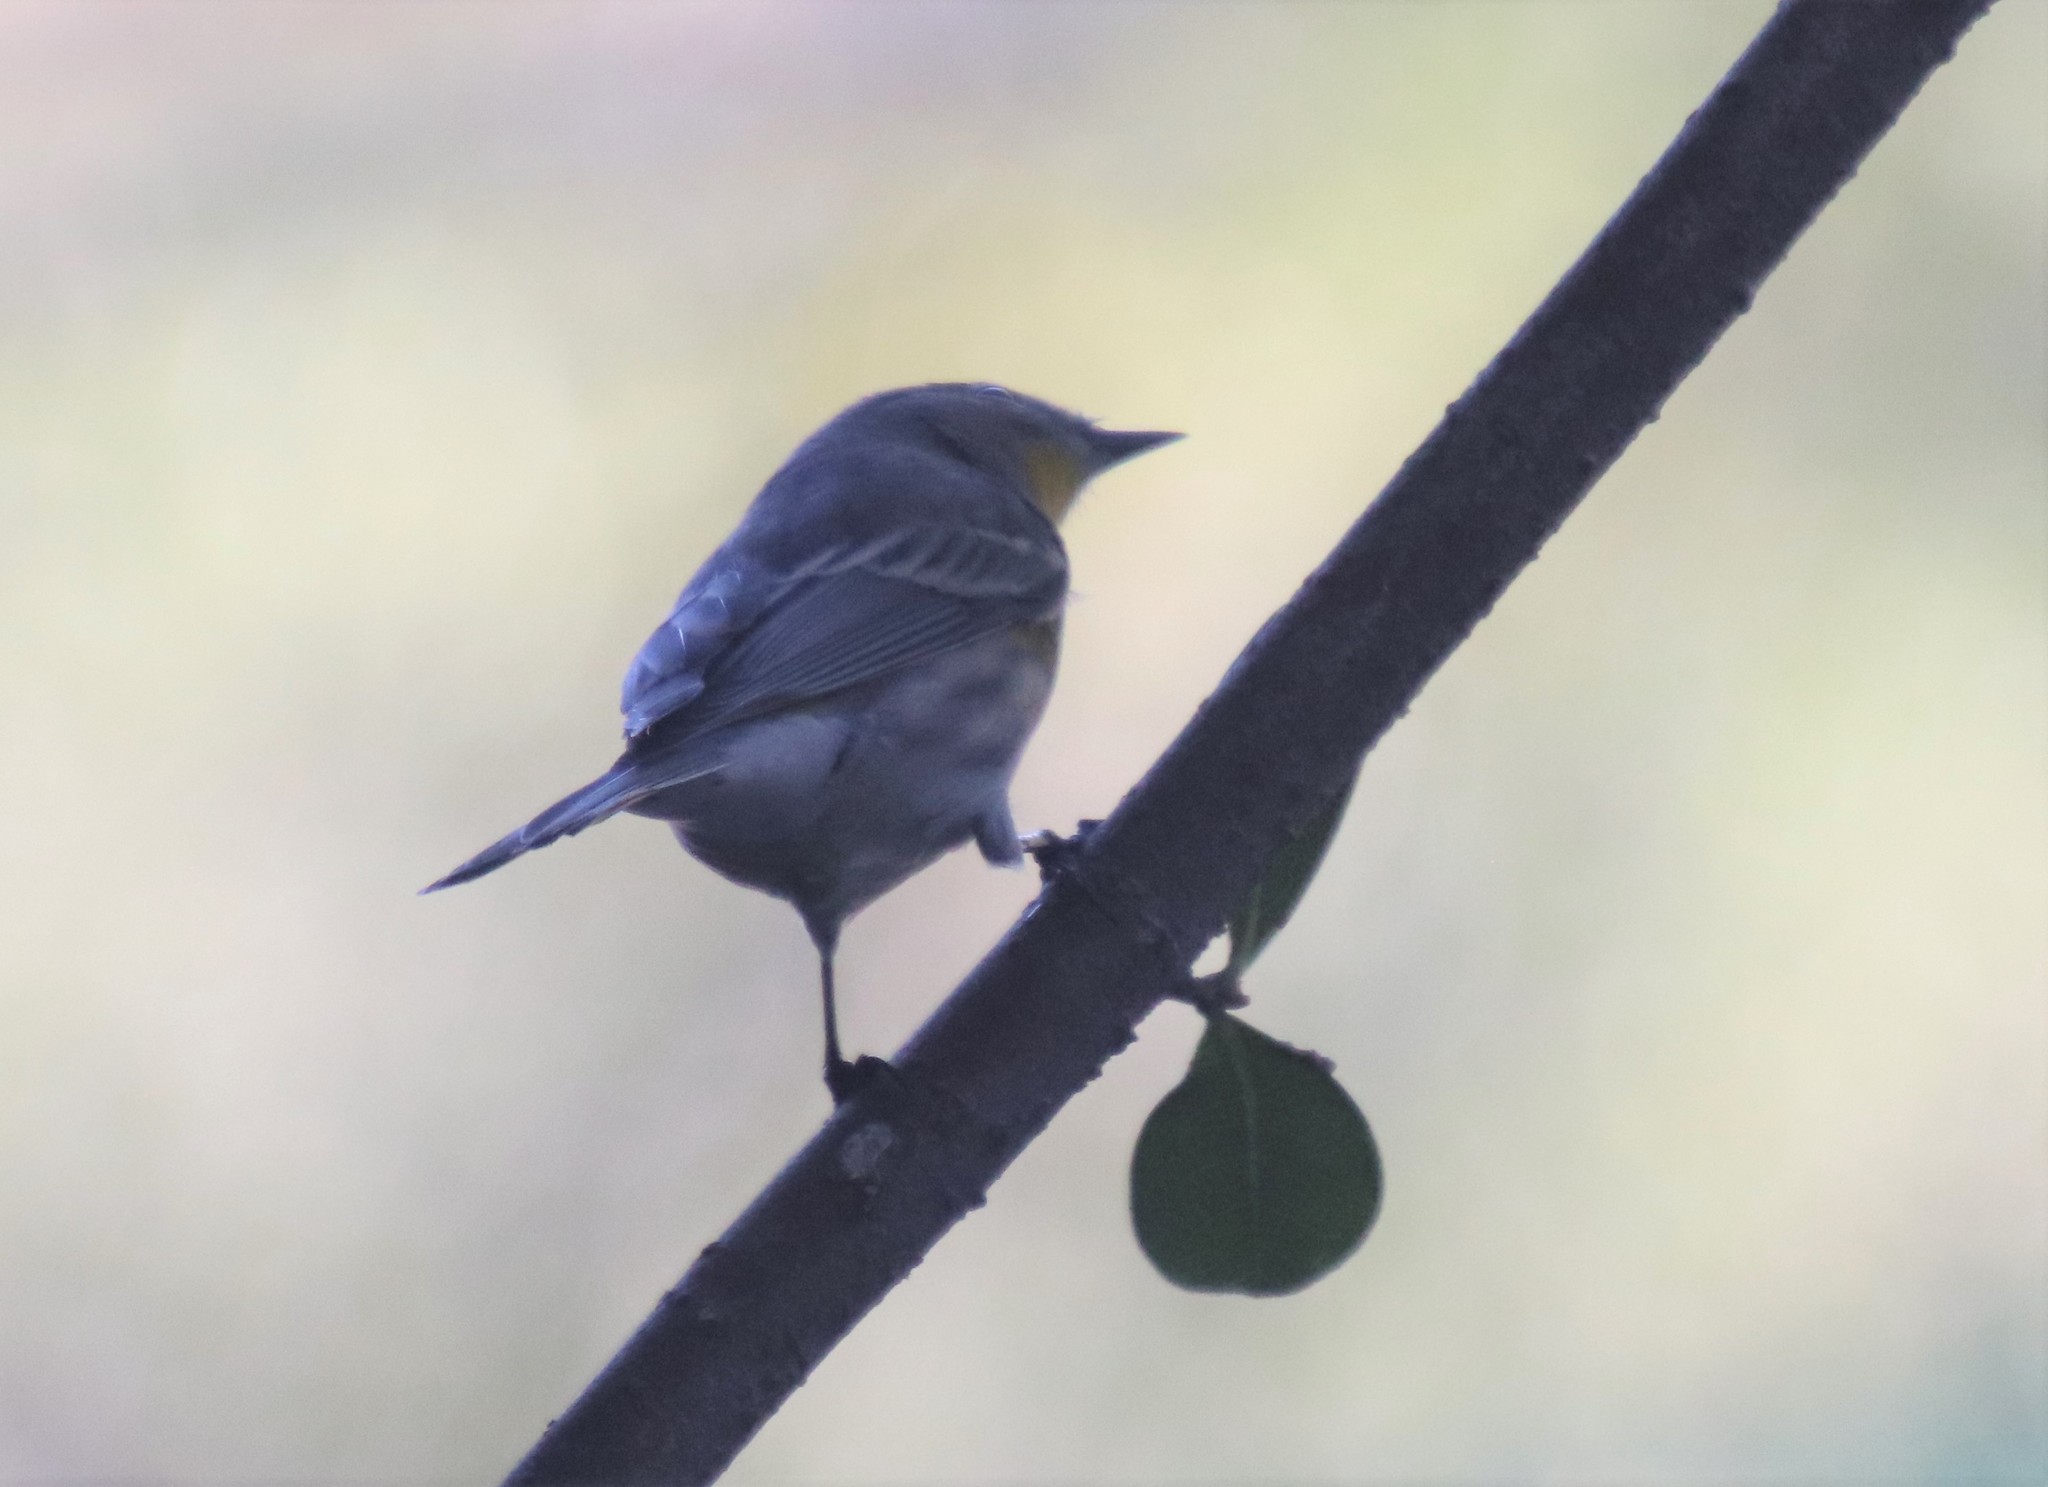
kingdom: Animalia
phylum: Chordata
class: Aves
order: Passeriformes
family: Parulidae
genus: Setophaga
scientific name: Setophaga auduboni
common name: Audubon's warbler
